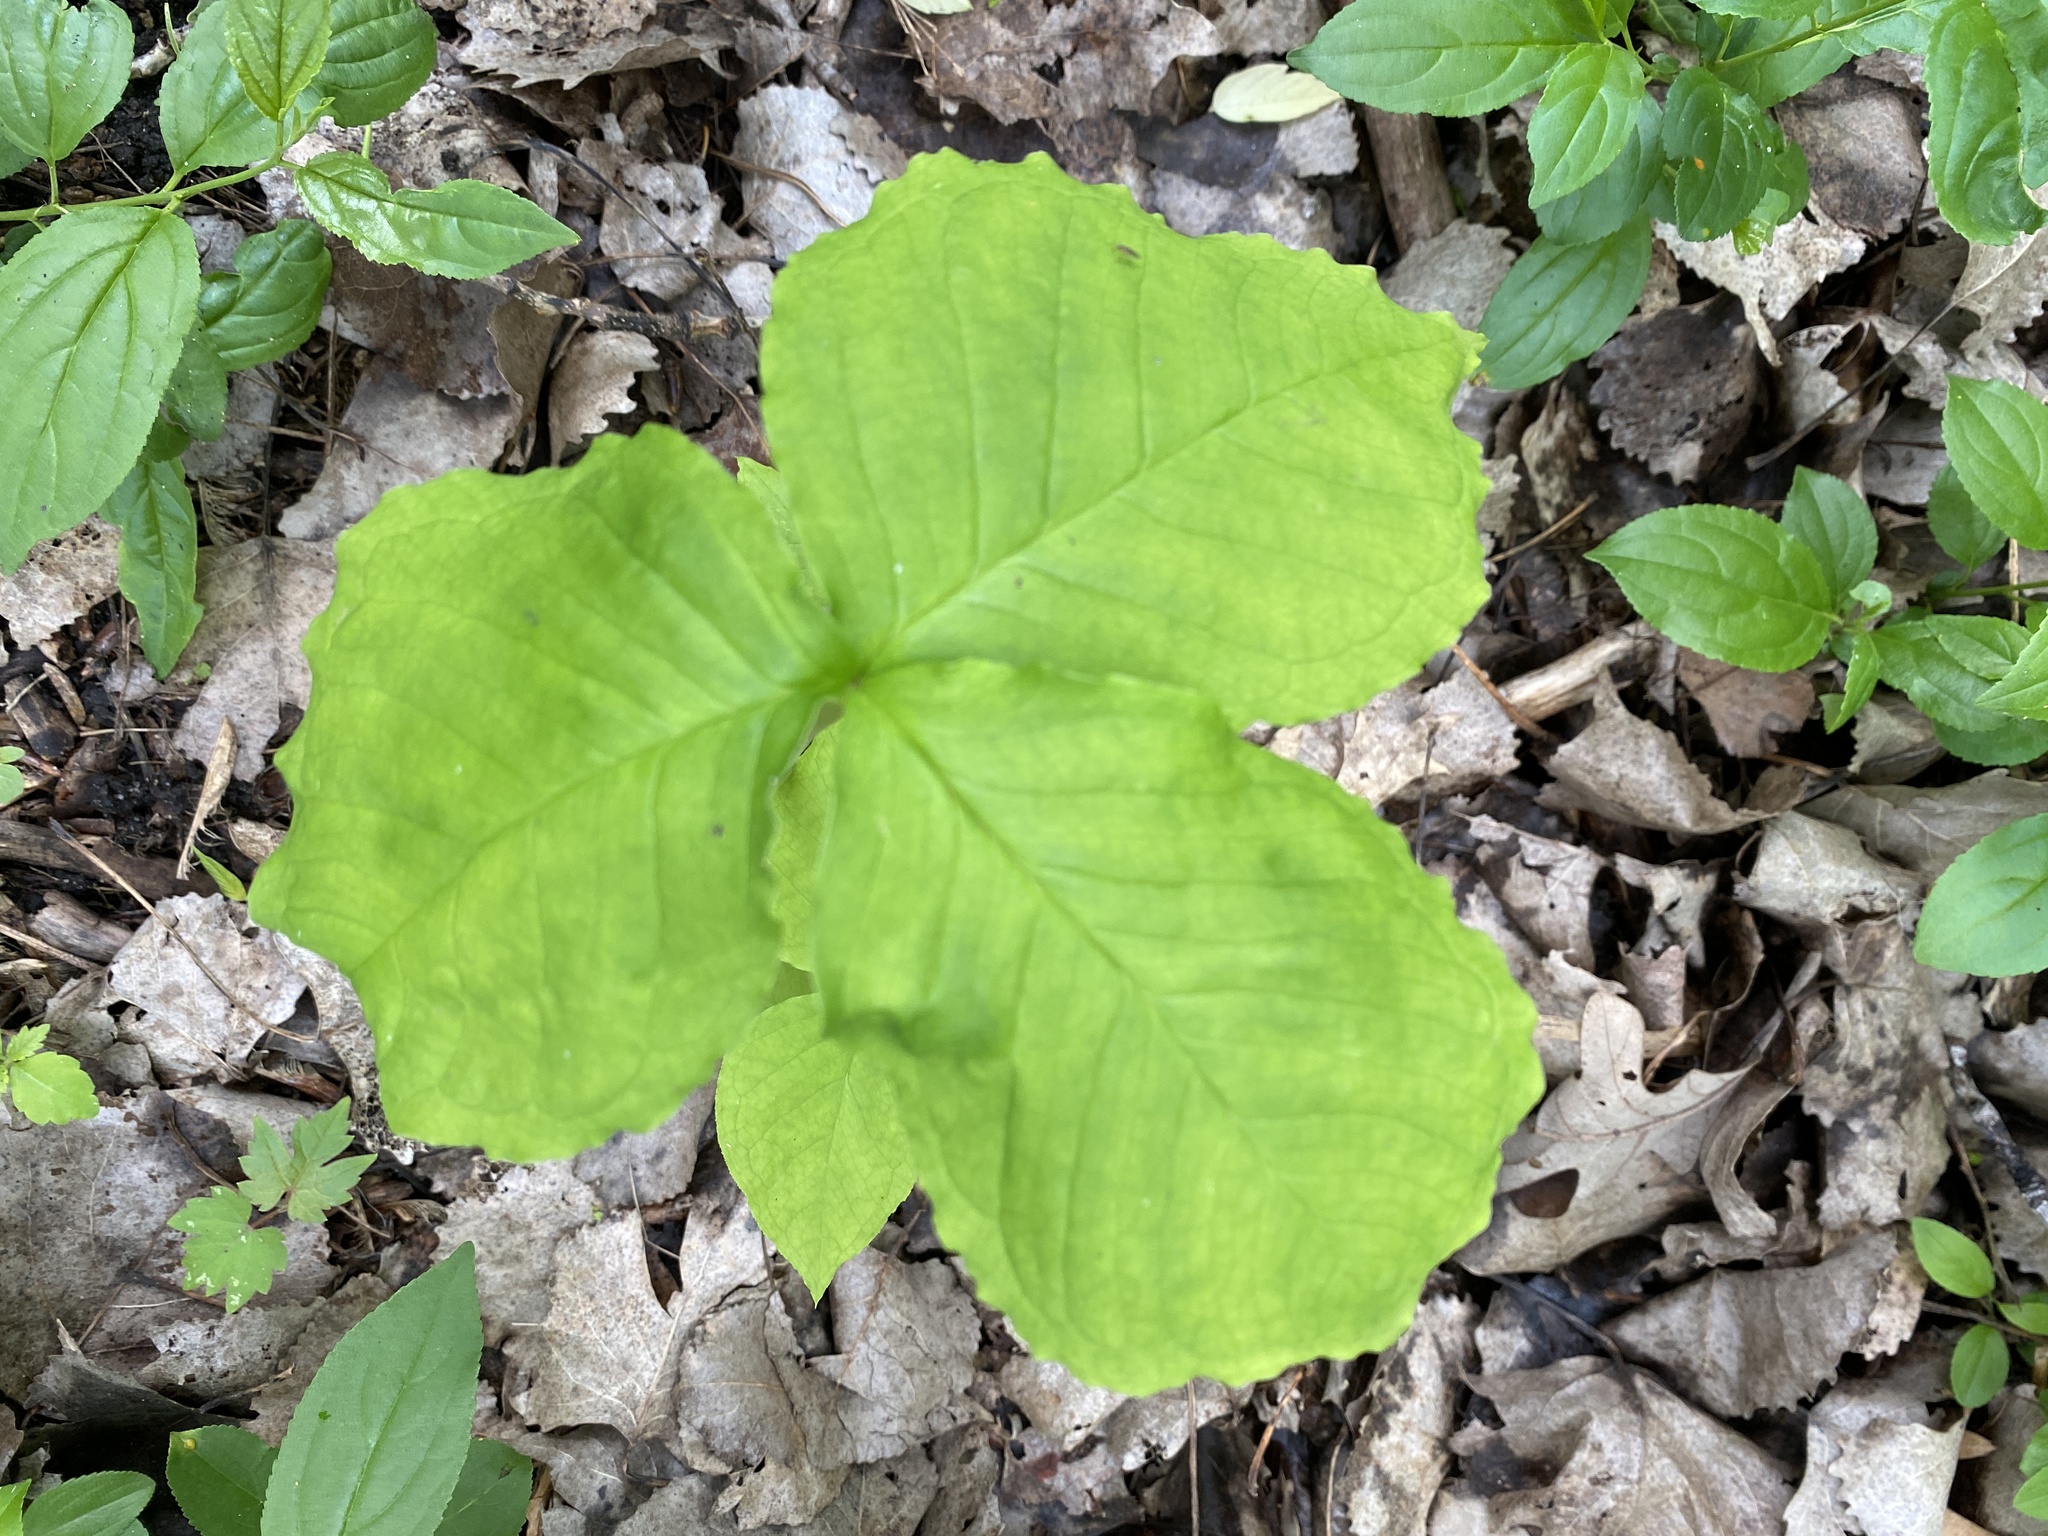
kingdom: Plantae
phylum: Tracheophyta
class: Liliopsida
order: Alismatales
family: Araceae
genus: Arisaema
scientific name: Arisaema triphyllum
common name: Jack-in-the-pulpit
